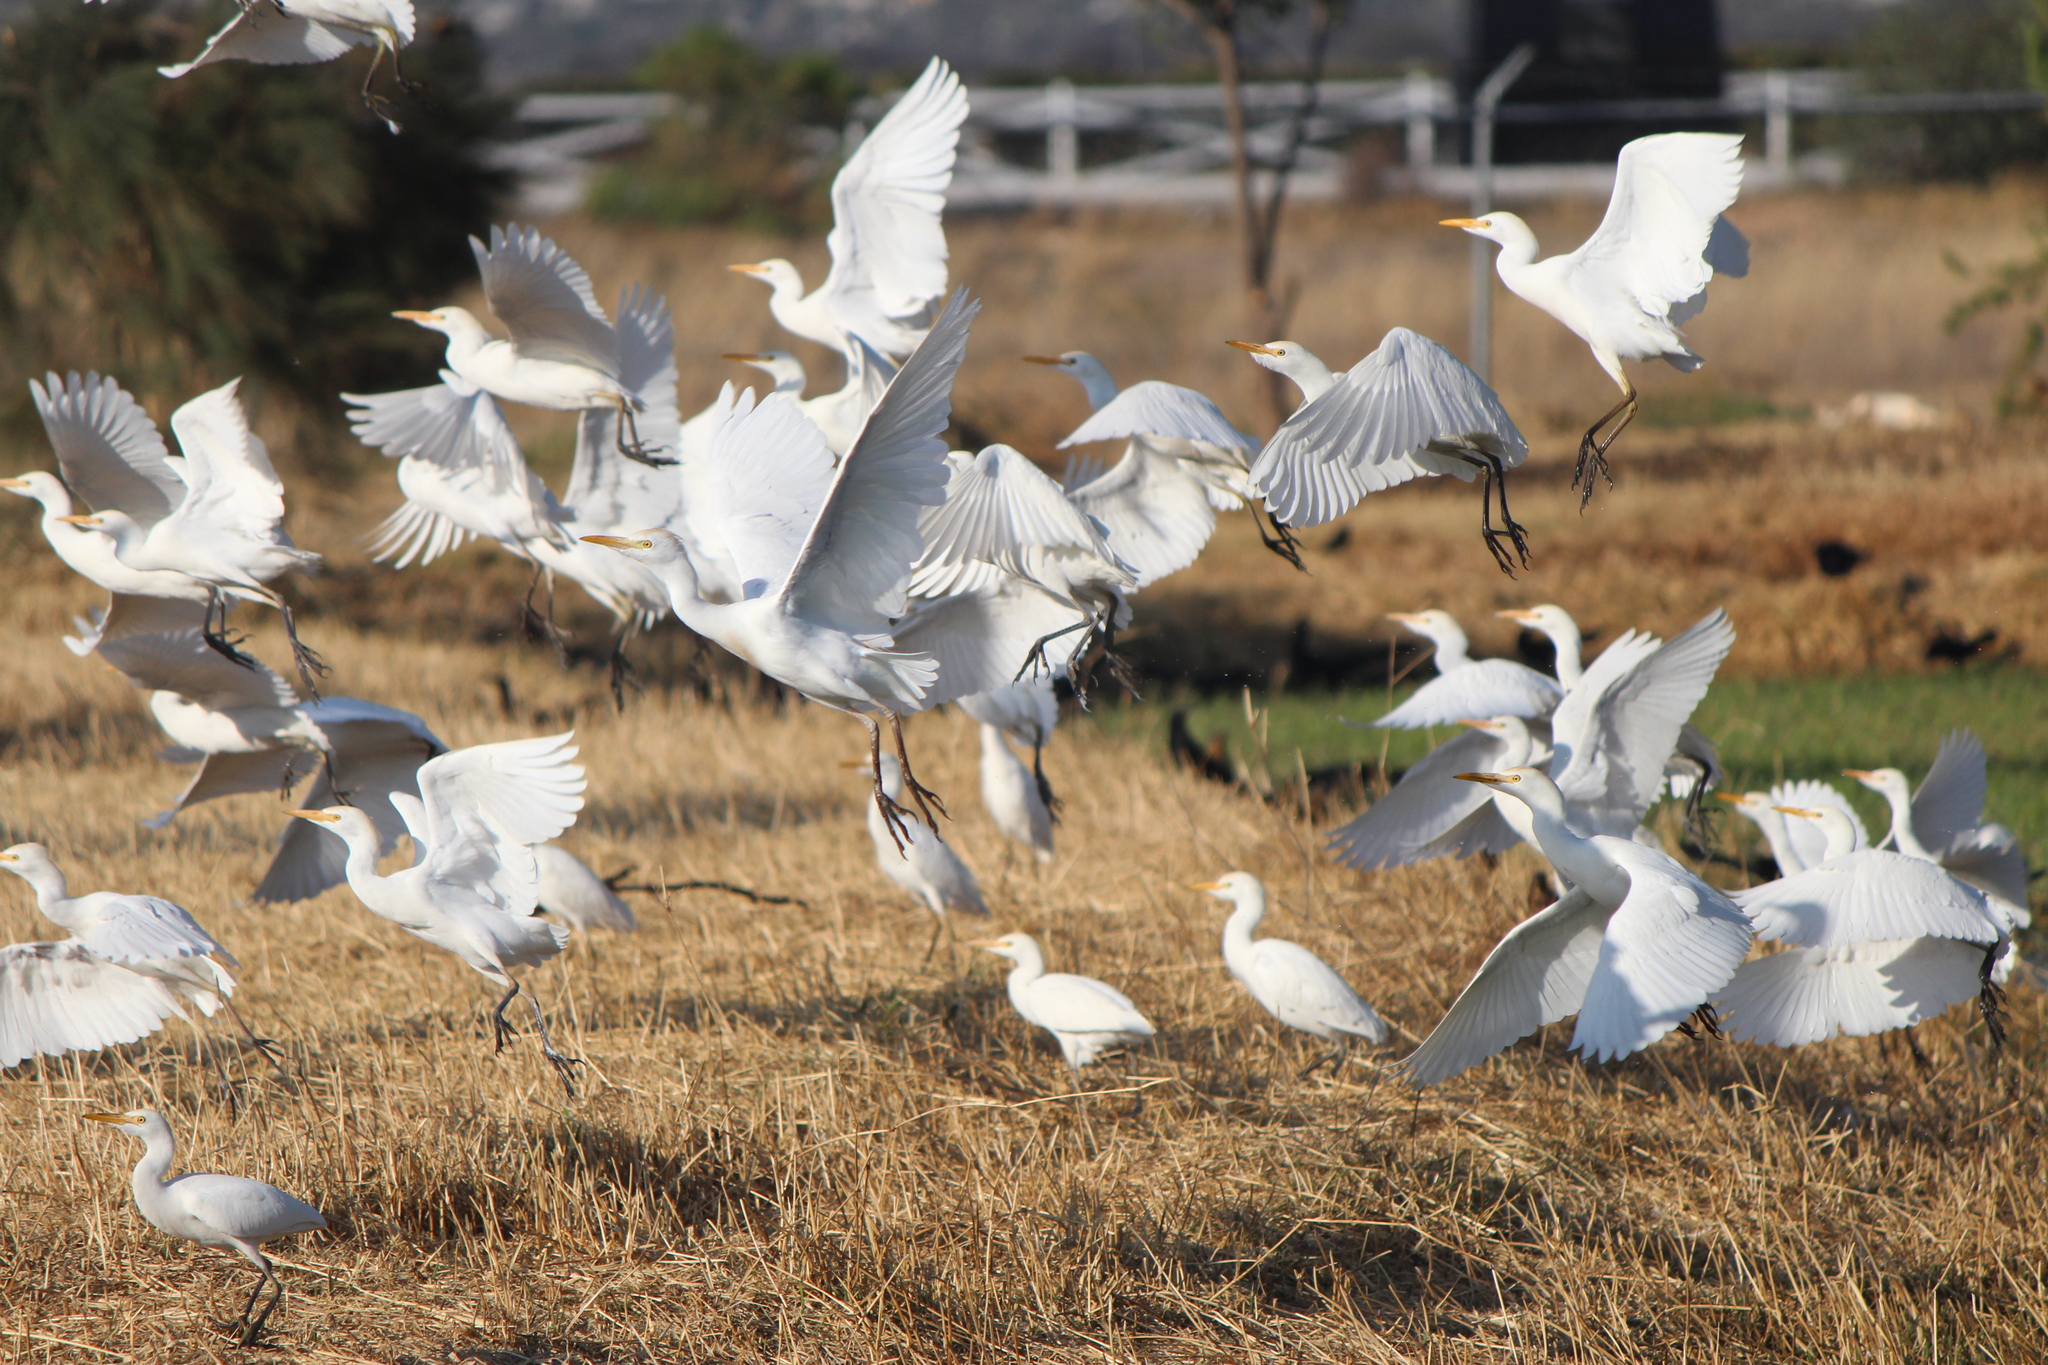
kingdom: Animalia
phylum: Chordata
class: Aves
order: Pelecaniformes
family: Ardeidae
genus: Bubulcus
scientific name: Bubulcus ibis
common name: Cattle egret
